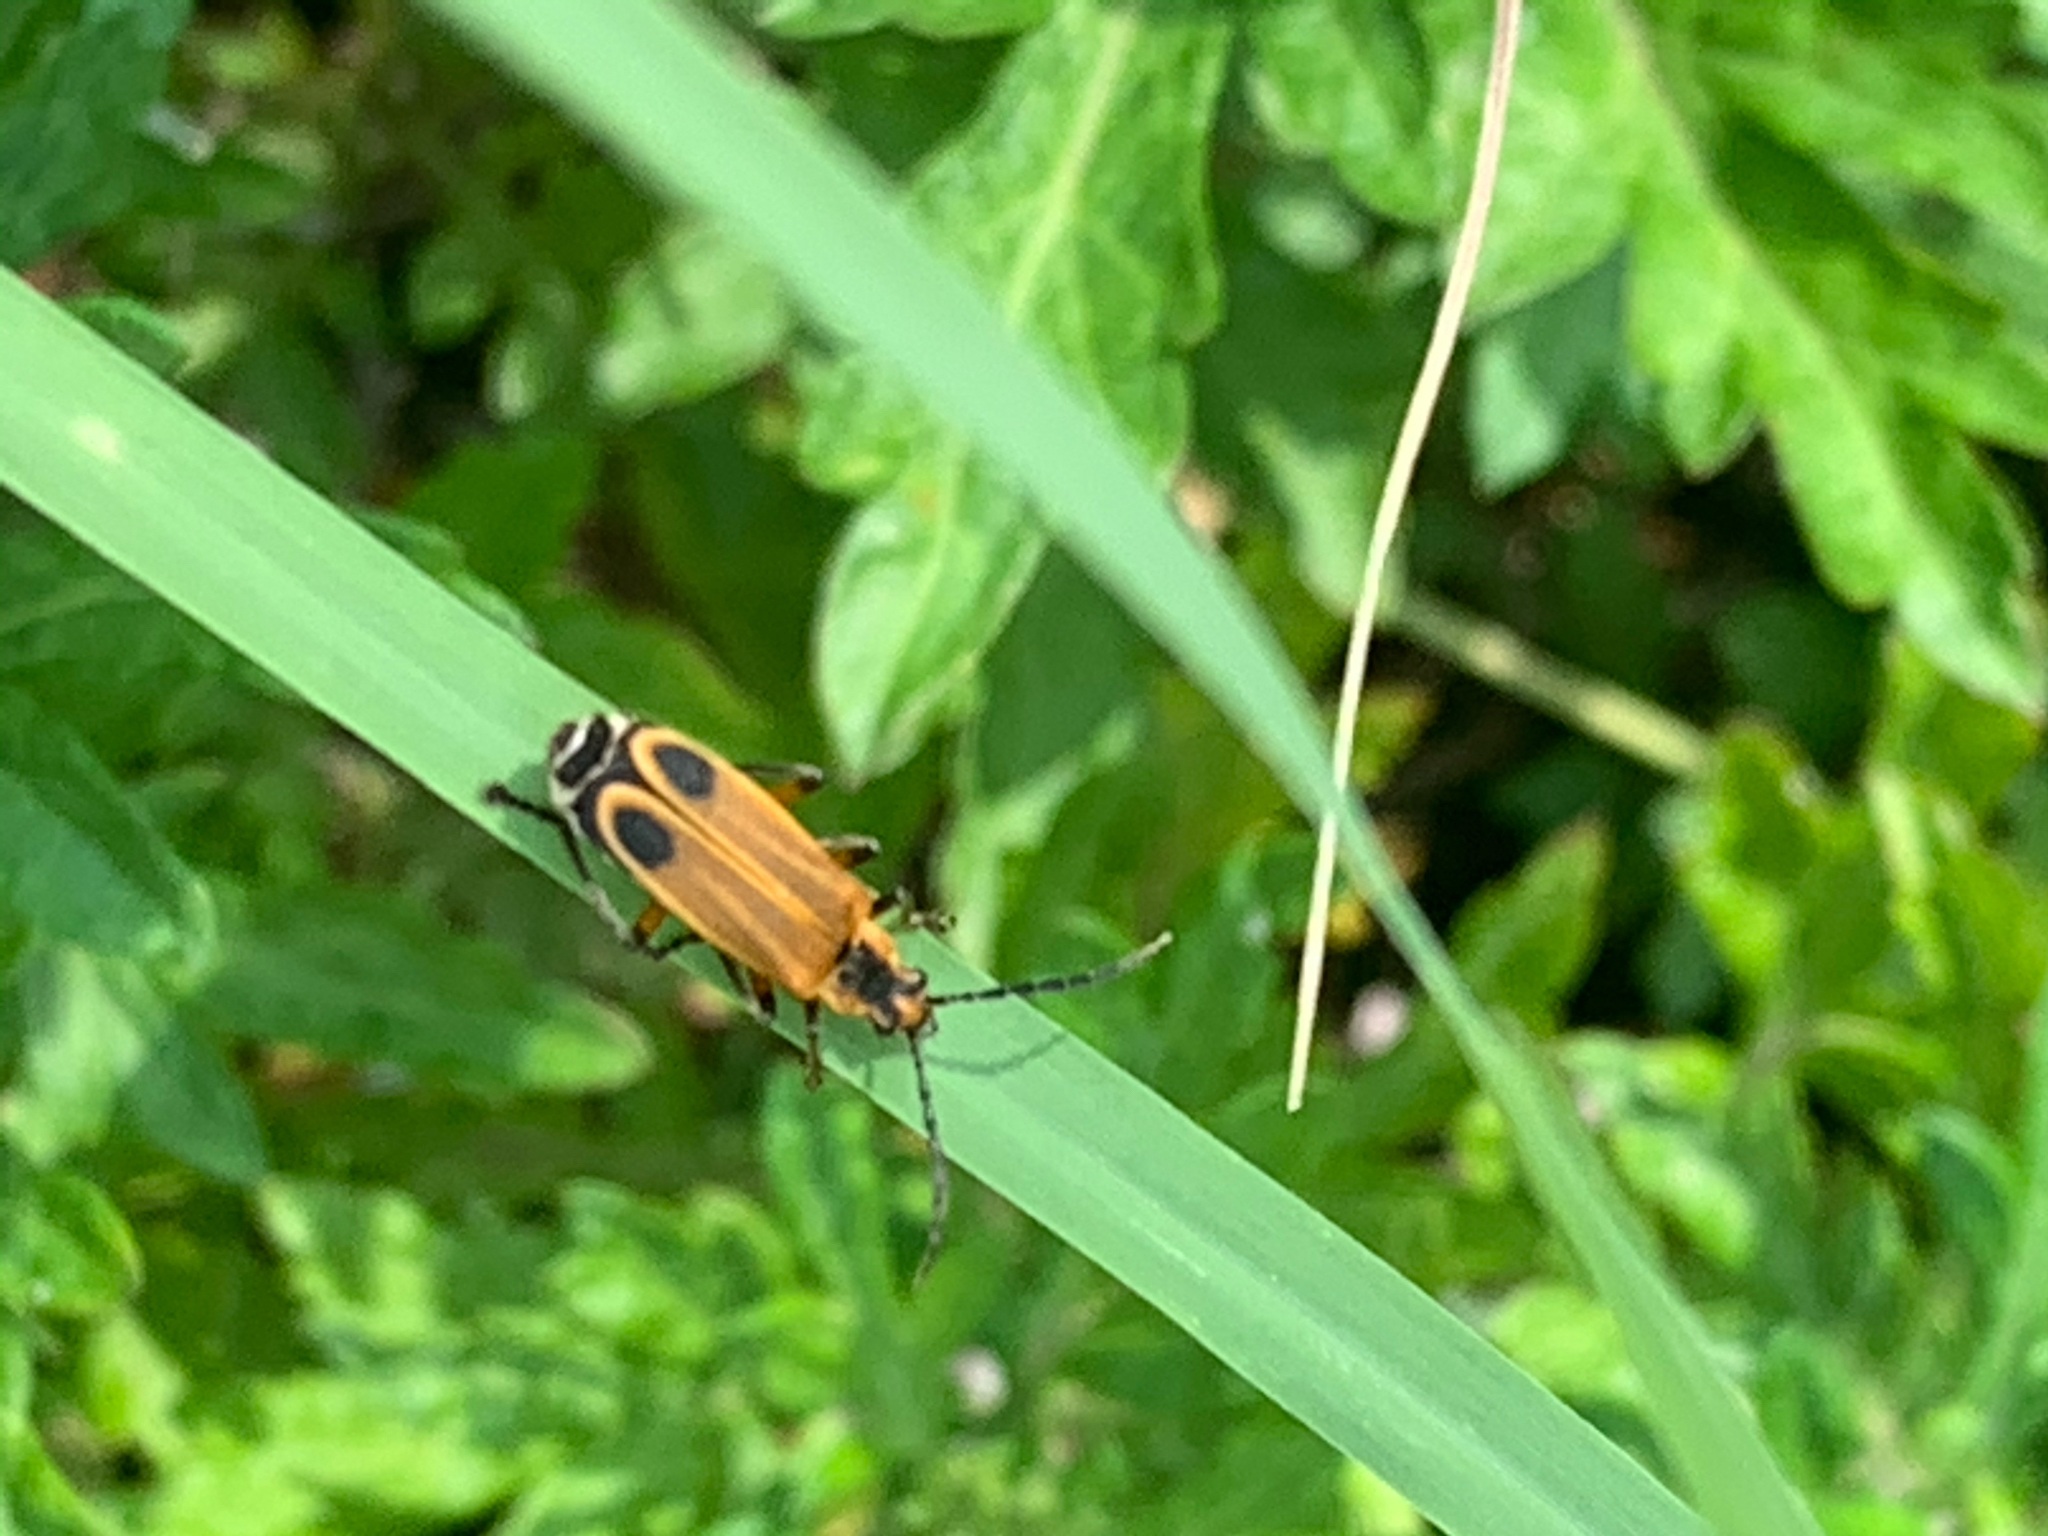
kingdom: Animalia
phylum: Arthropoda
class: Insecta
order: Coleoptera
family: Cantharidae
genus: Chauliognathus
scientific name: Chauliognathus marginatus
